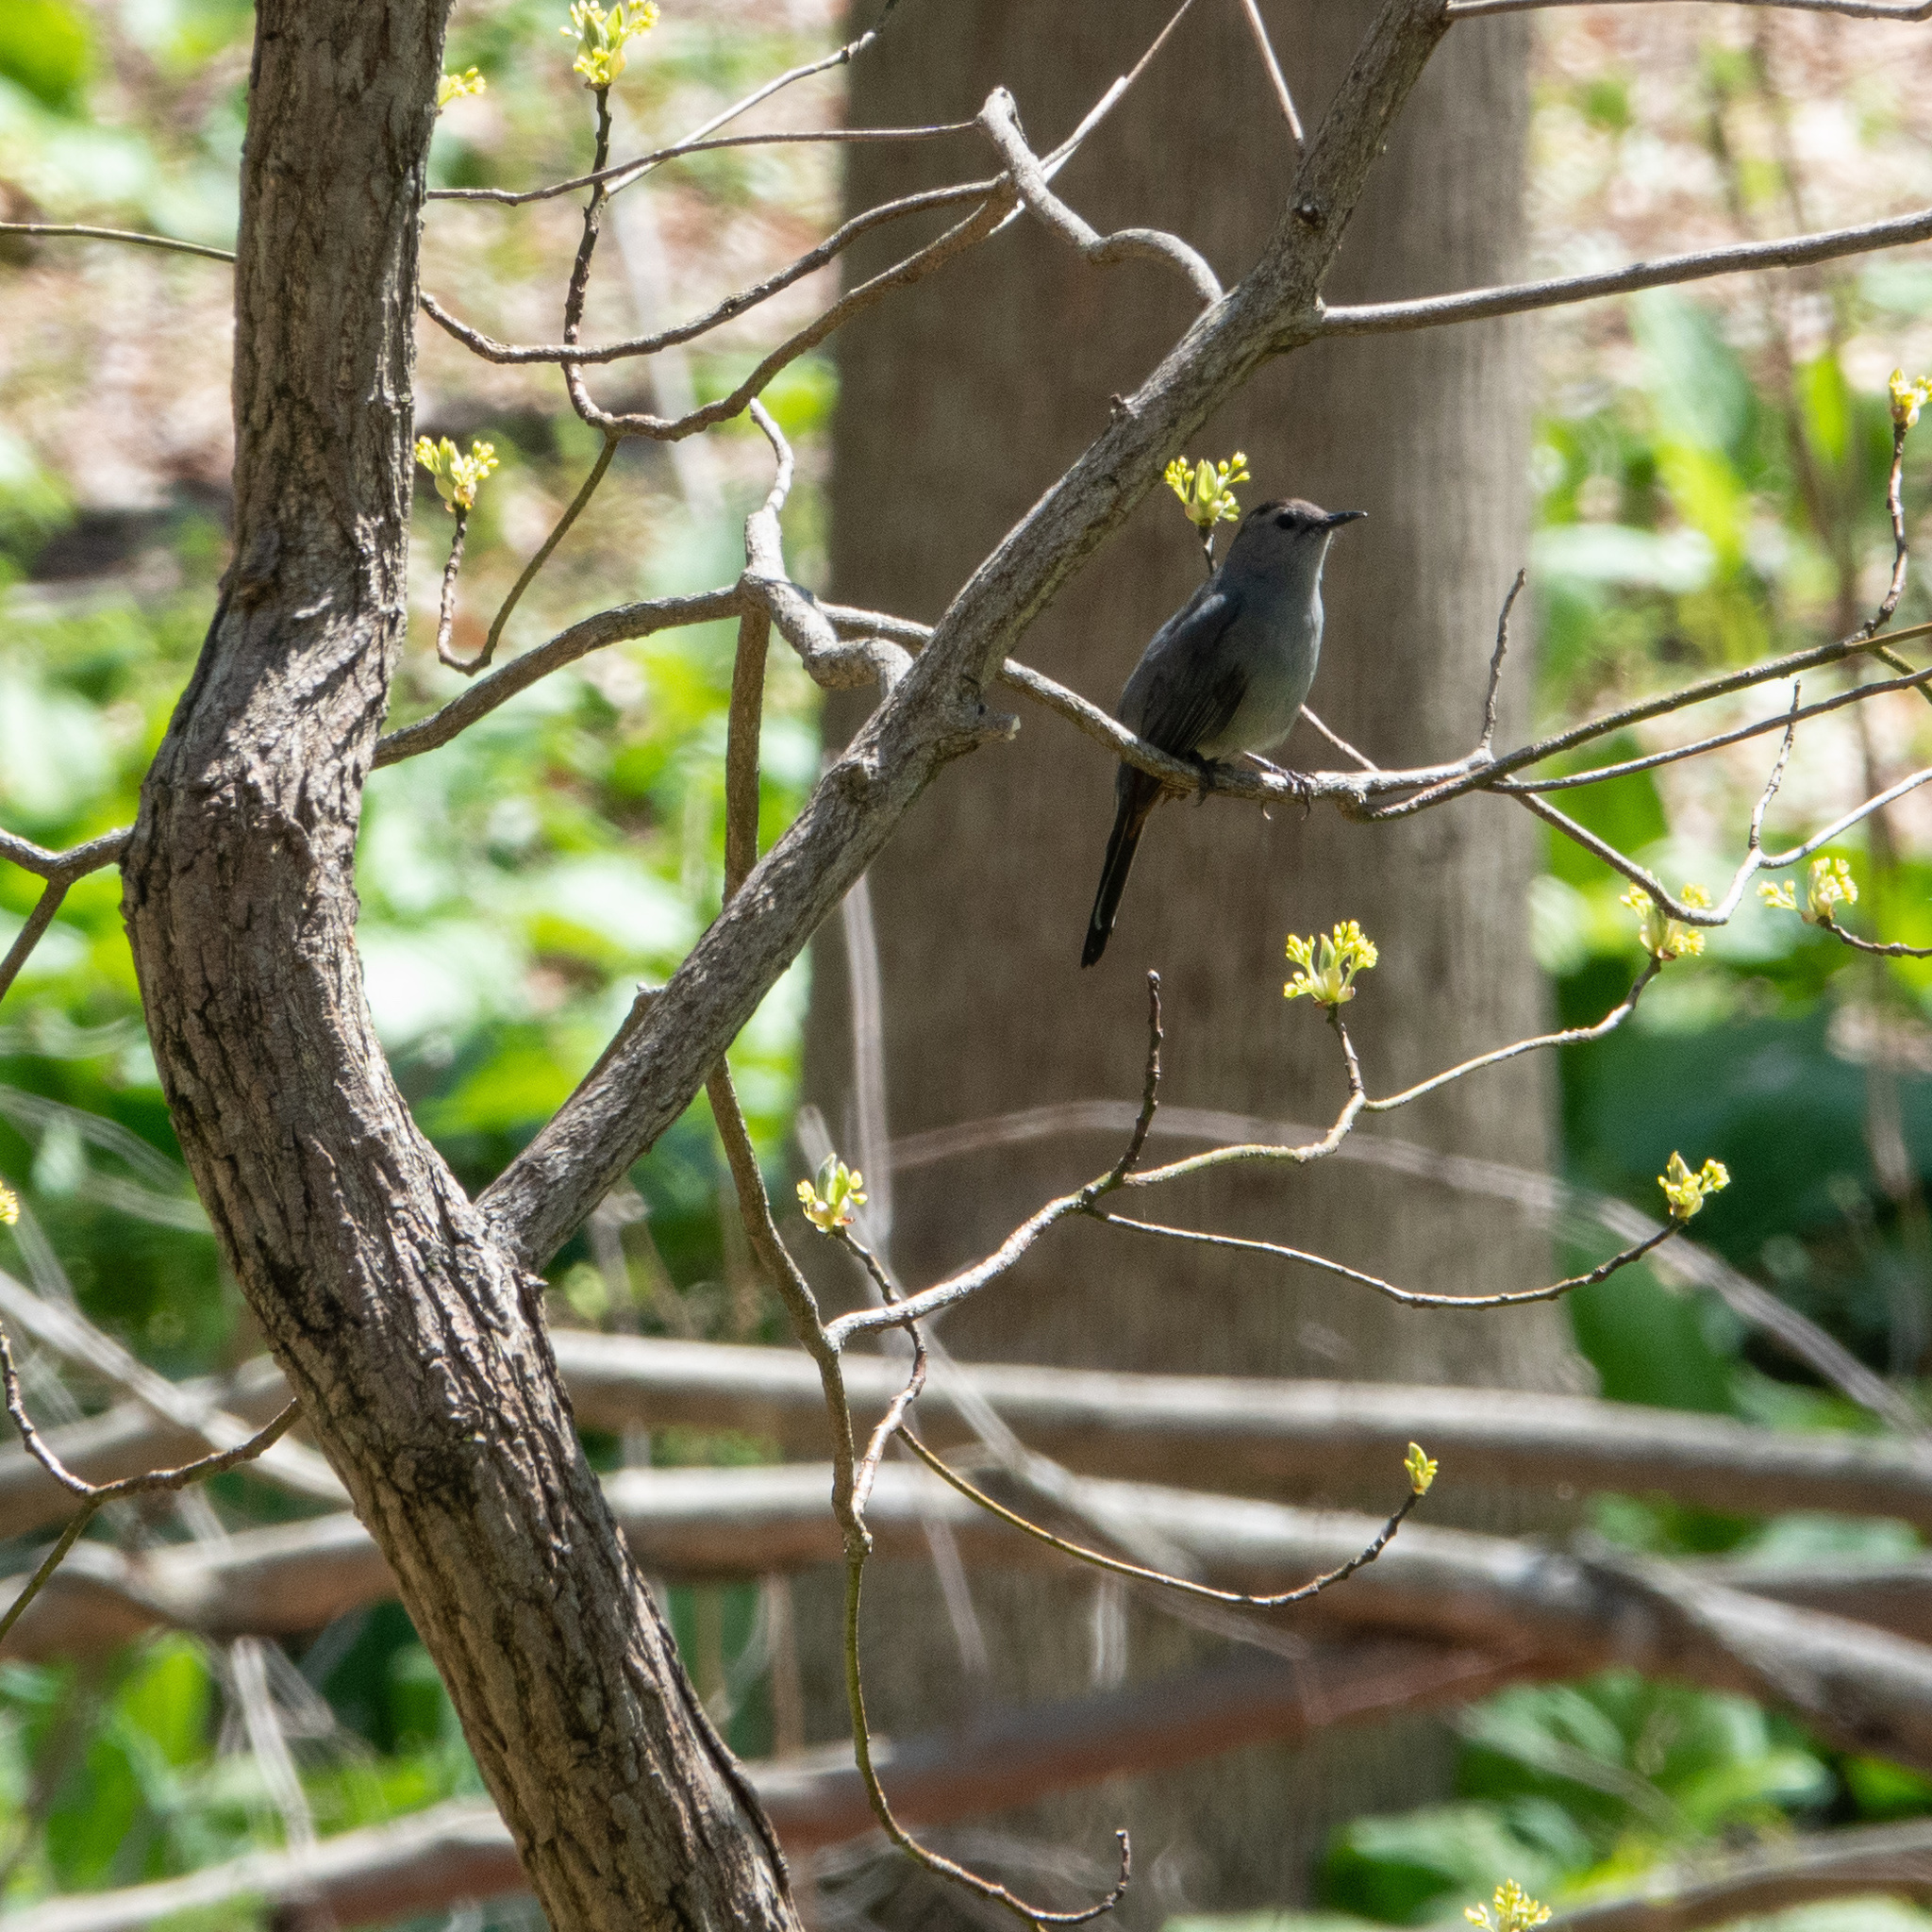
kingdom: Animalia
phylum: Chordata
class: Aves
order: Passeriformes
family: Mimidae
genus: Dumetella
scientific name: Dumetella carolinensis
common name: Gray catbird
